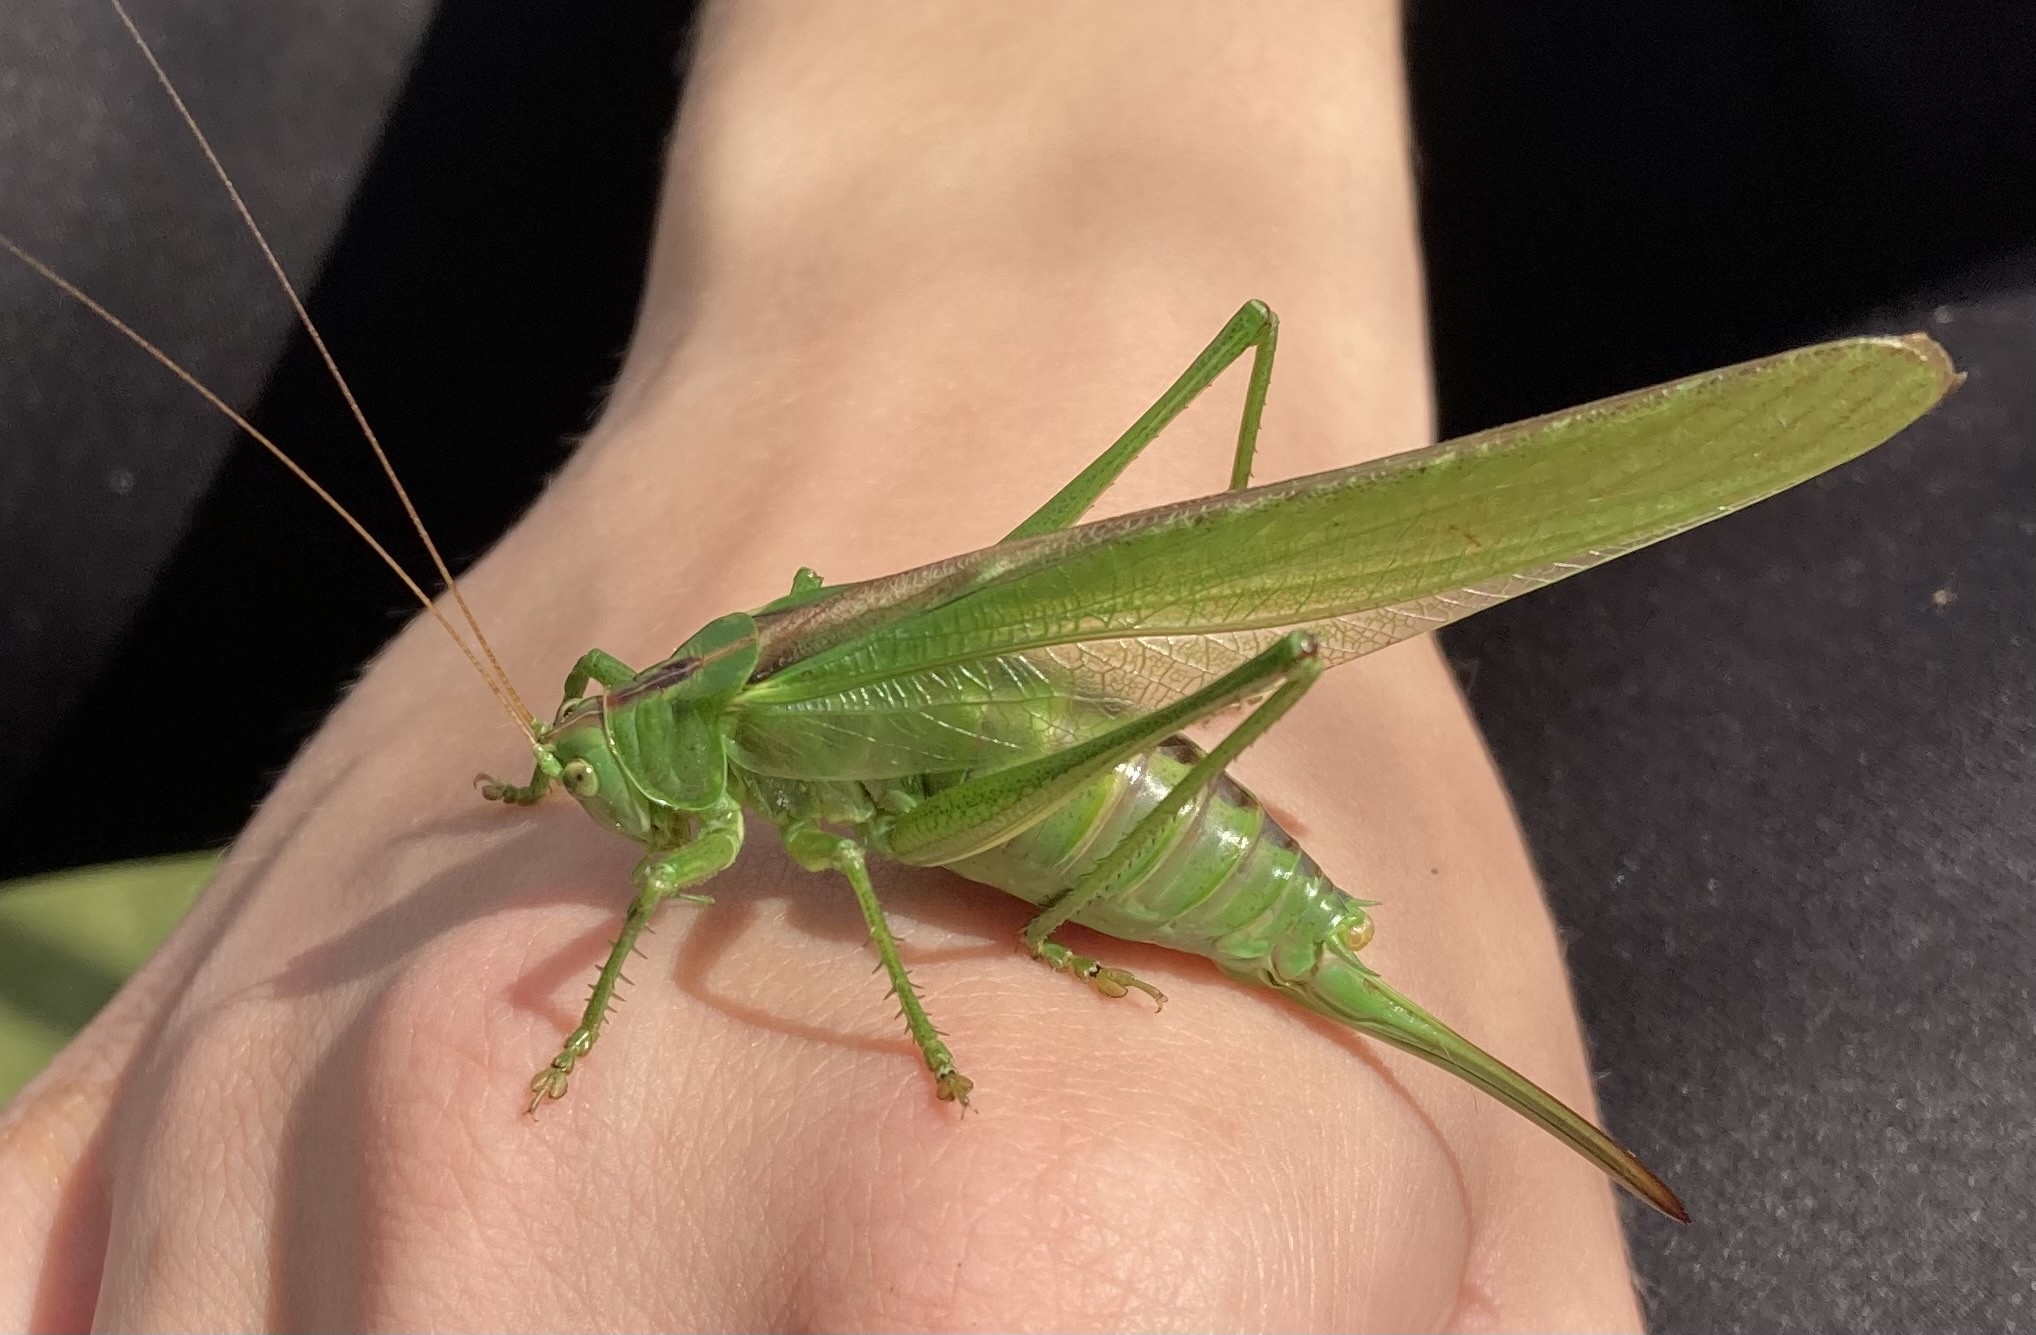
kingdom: Animalia
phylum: Arthropoda
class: Insecta
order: Orthoptera
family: Tettigoniidae
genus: Tettigonia
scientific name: Tettigonia viridissima
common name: Great green bush-cricket
